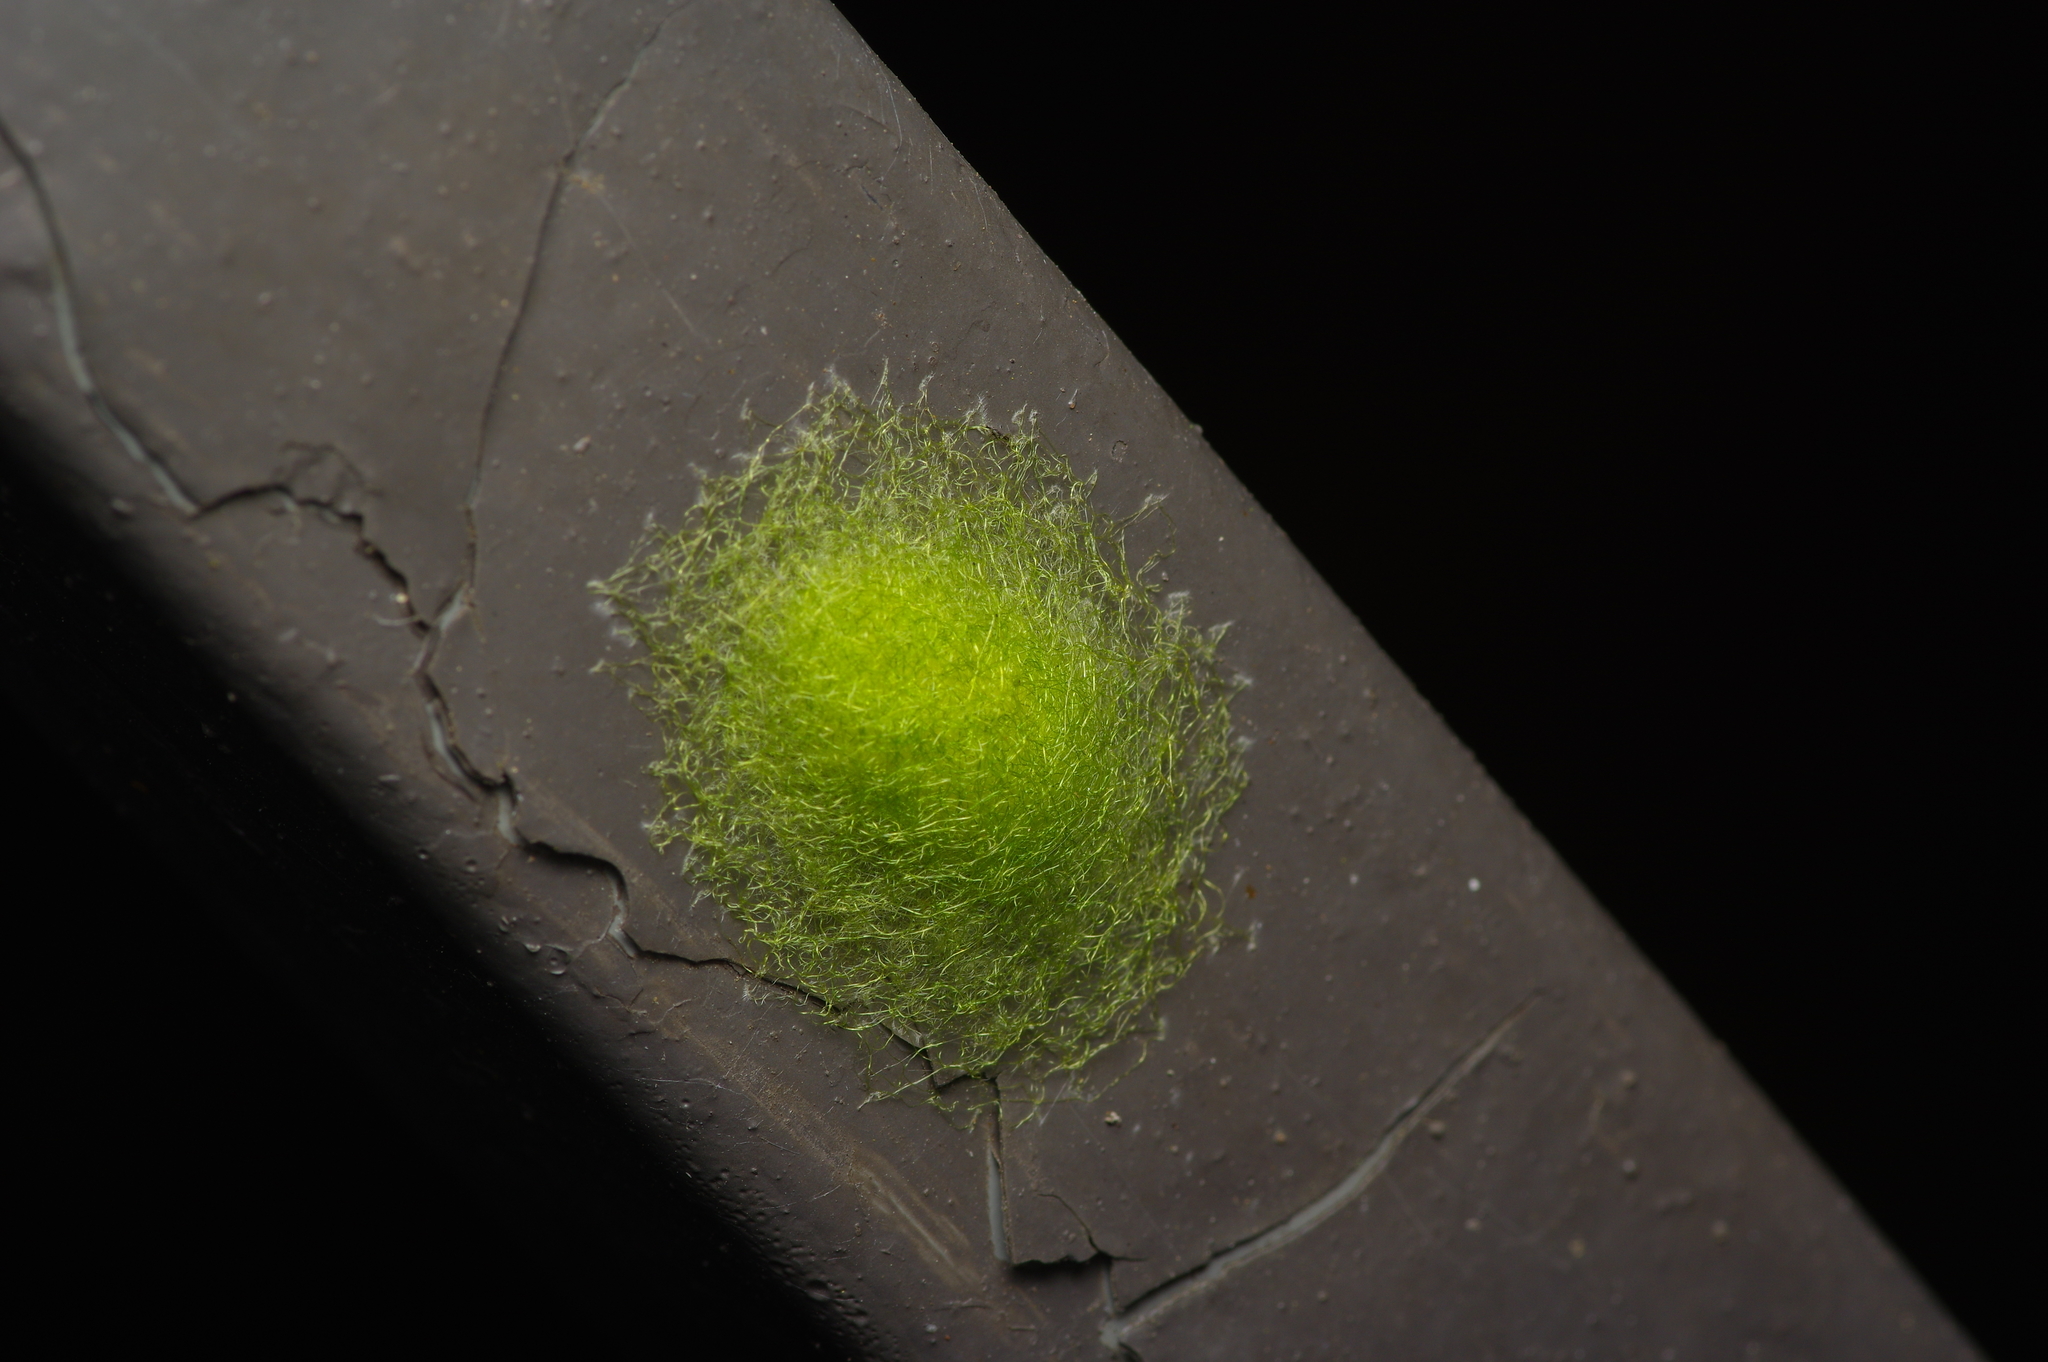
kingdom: Animalia
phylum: Arthropoda
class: Arachnida
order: Araneae
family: Araneidae
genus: Gasteracantha
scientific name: Gasteracantha cancriformis
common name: Orb weavers
